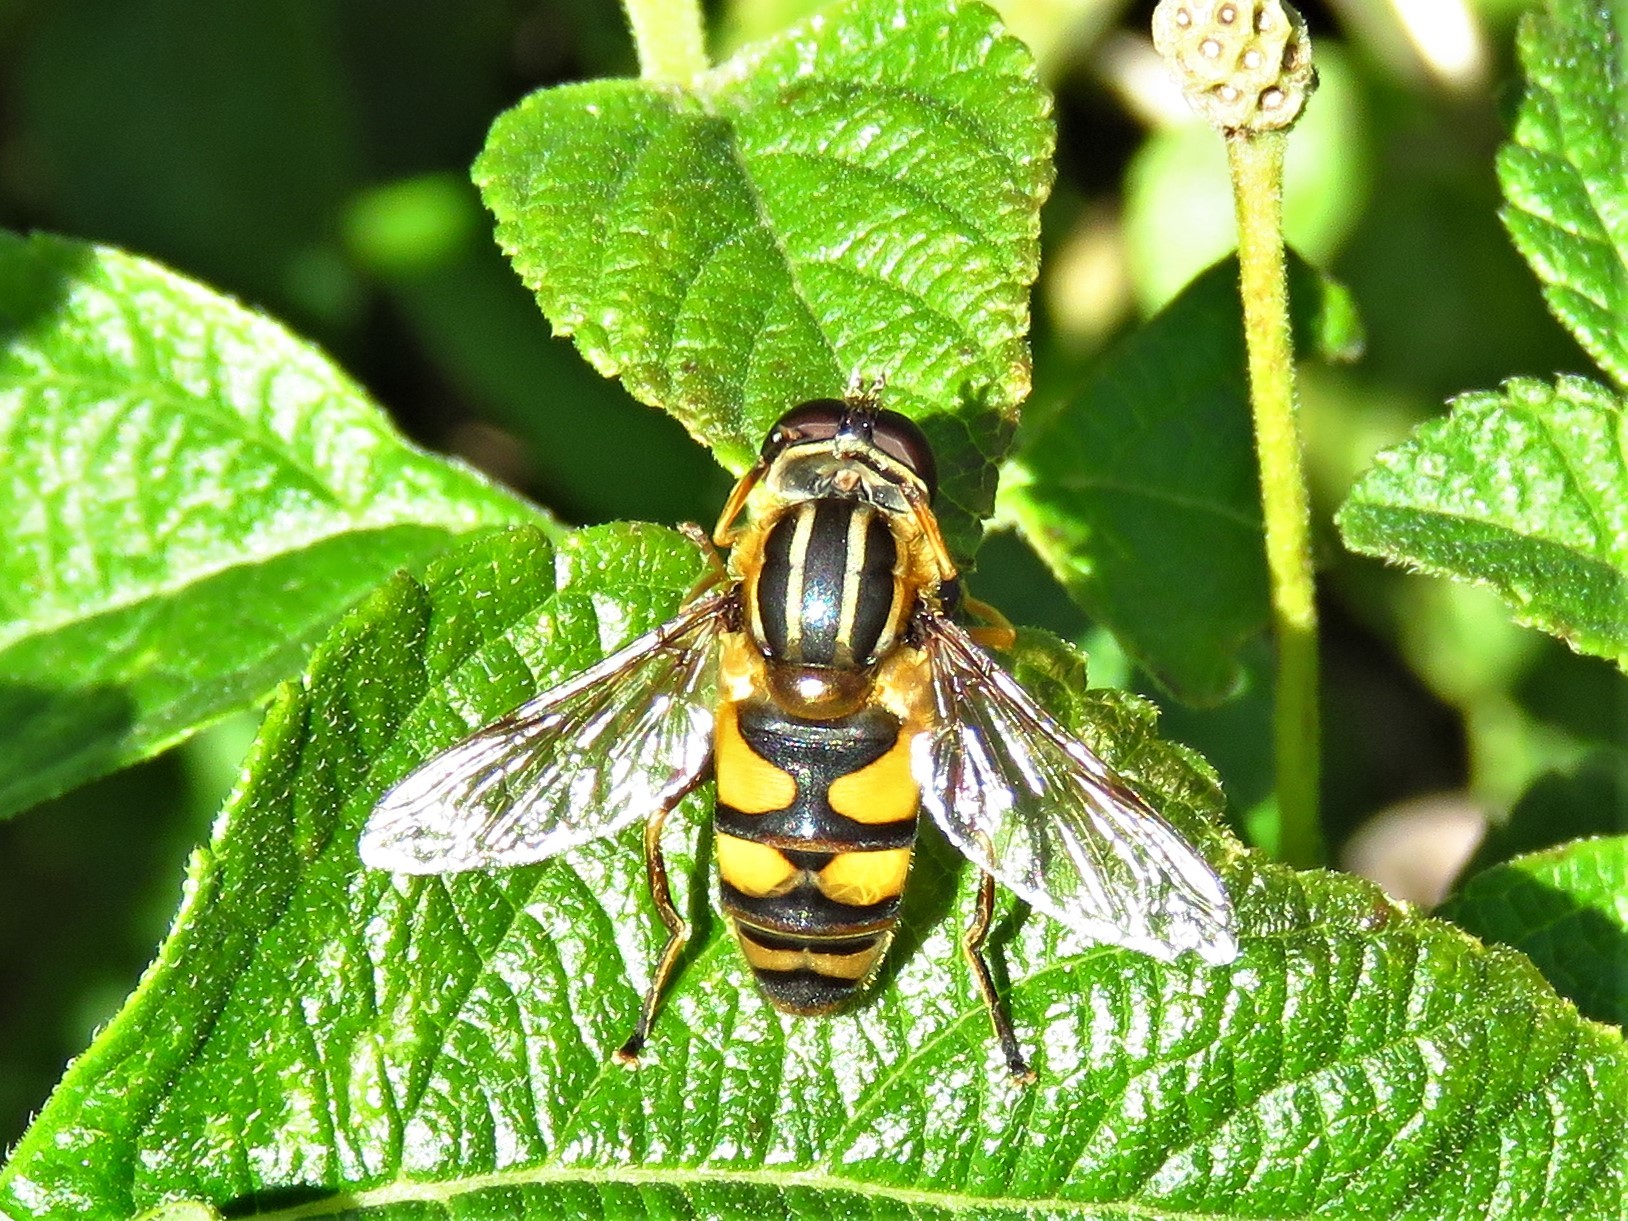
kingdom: Animalia
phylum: Arthropoda
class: Insecta
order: Diptera
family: Syrphidae
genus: Helophilus
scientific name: Helophilus fasciatus
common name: Narrow-headed marsh fly
